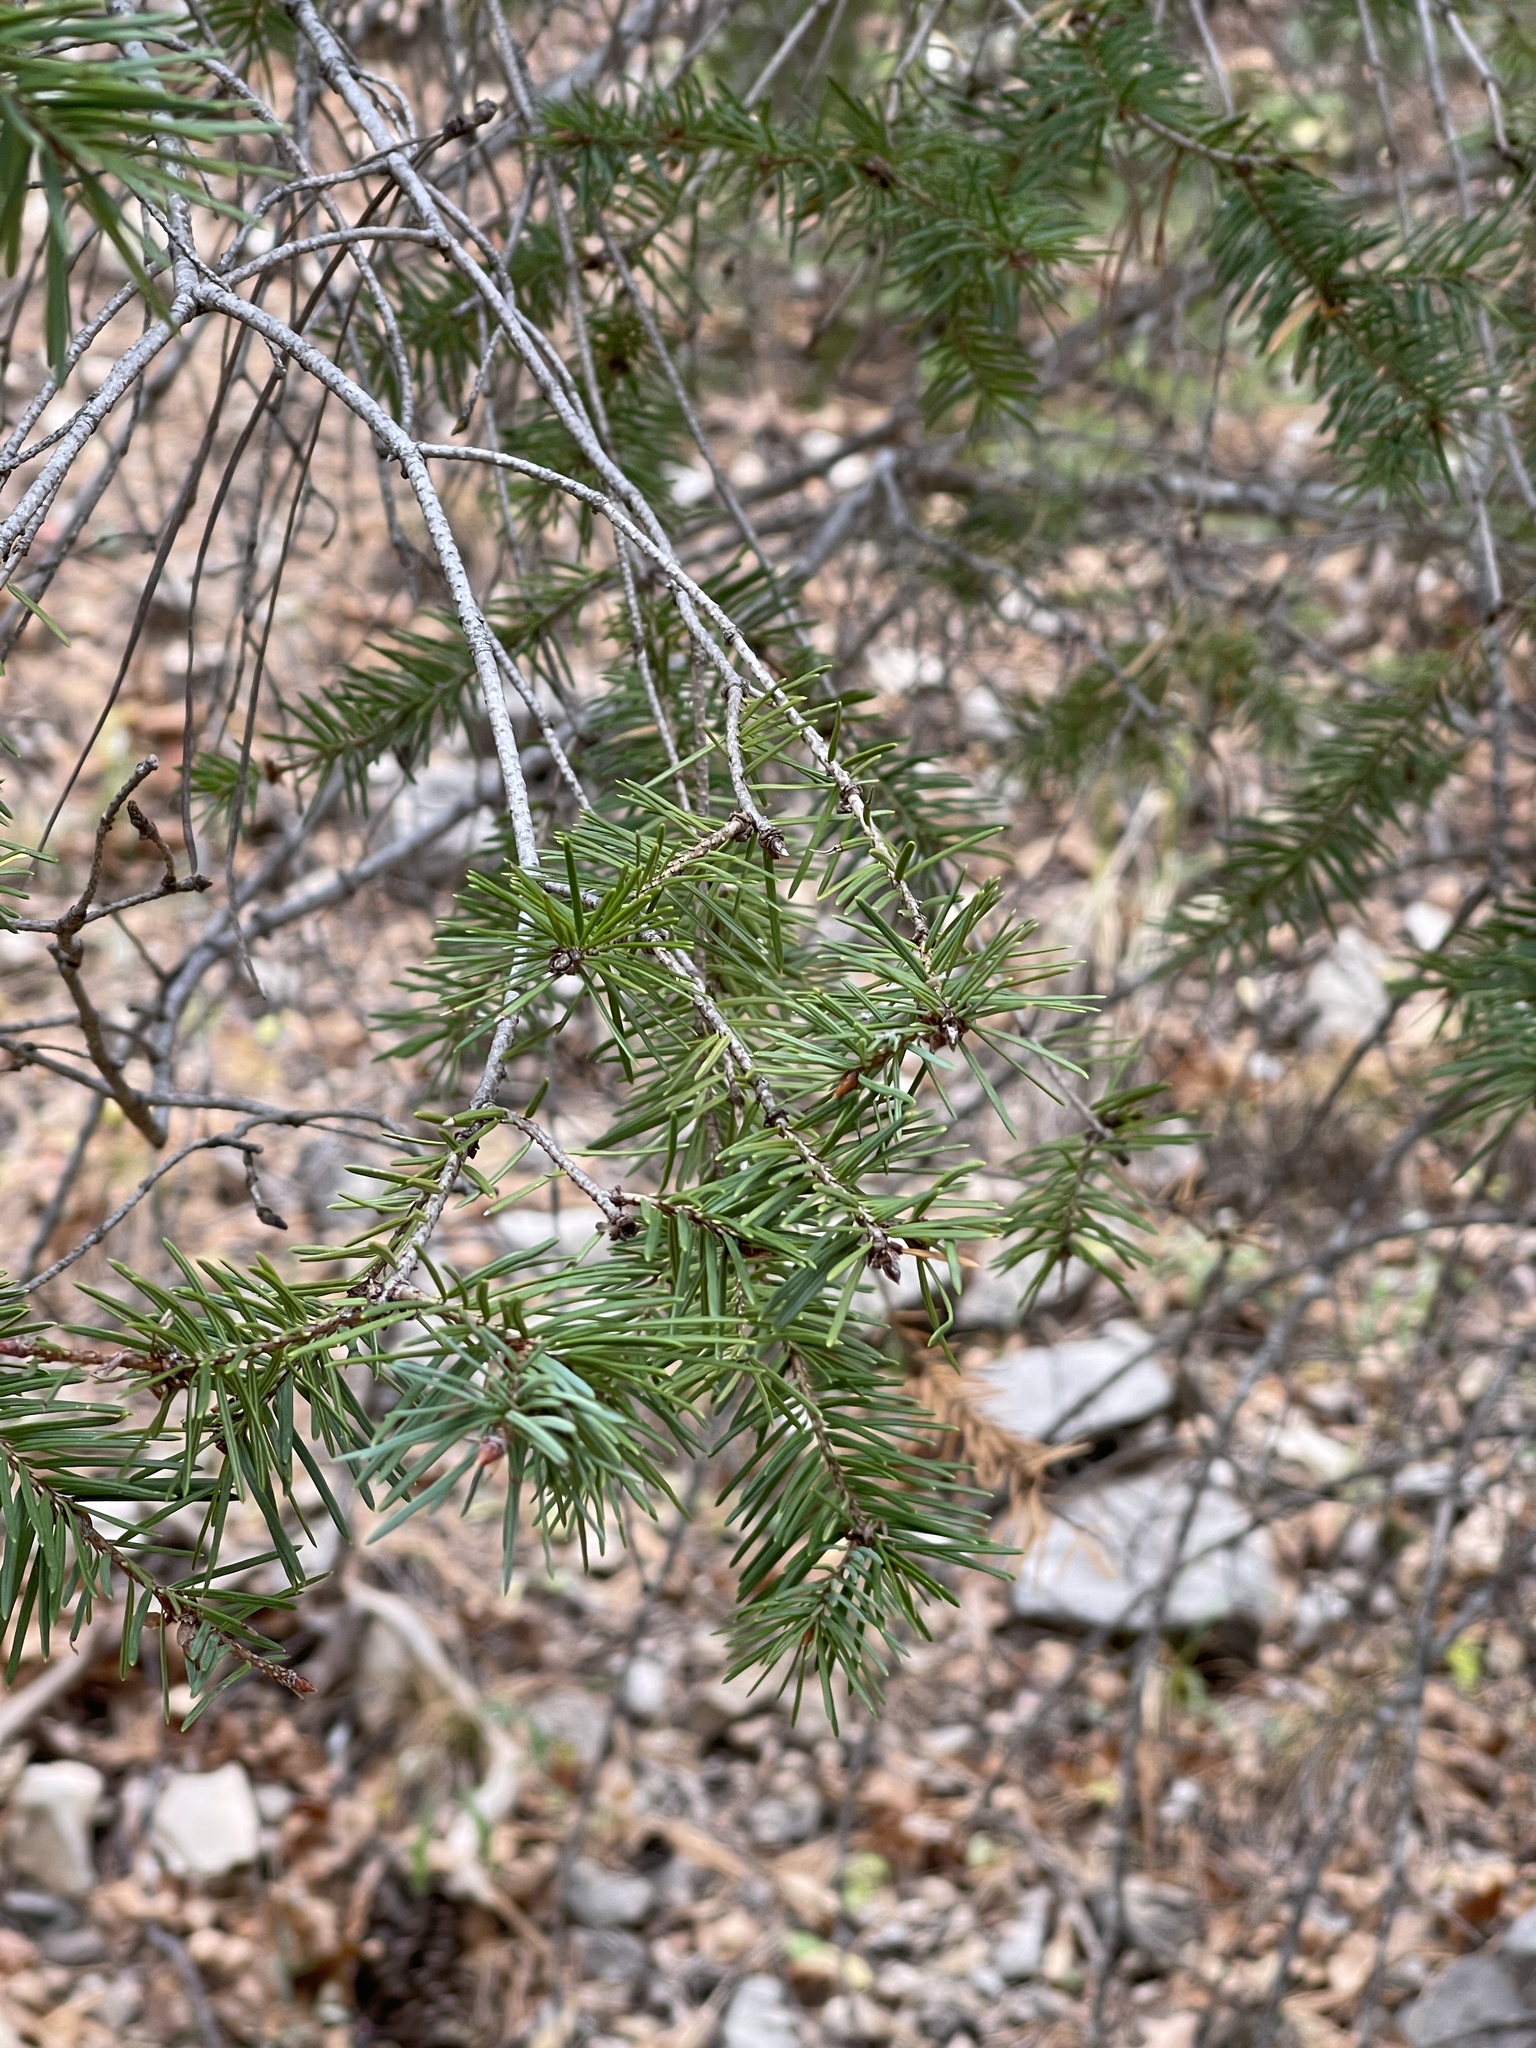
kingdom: Plantae
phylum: Tracheophyta
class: Pinopsida
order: Pinales
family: Pinaceae
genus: Pseudotsuga
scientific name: Pseudotsuga menziesii
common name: Douglas fir
